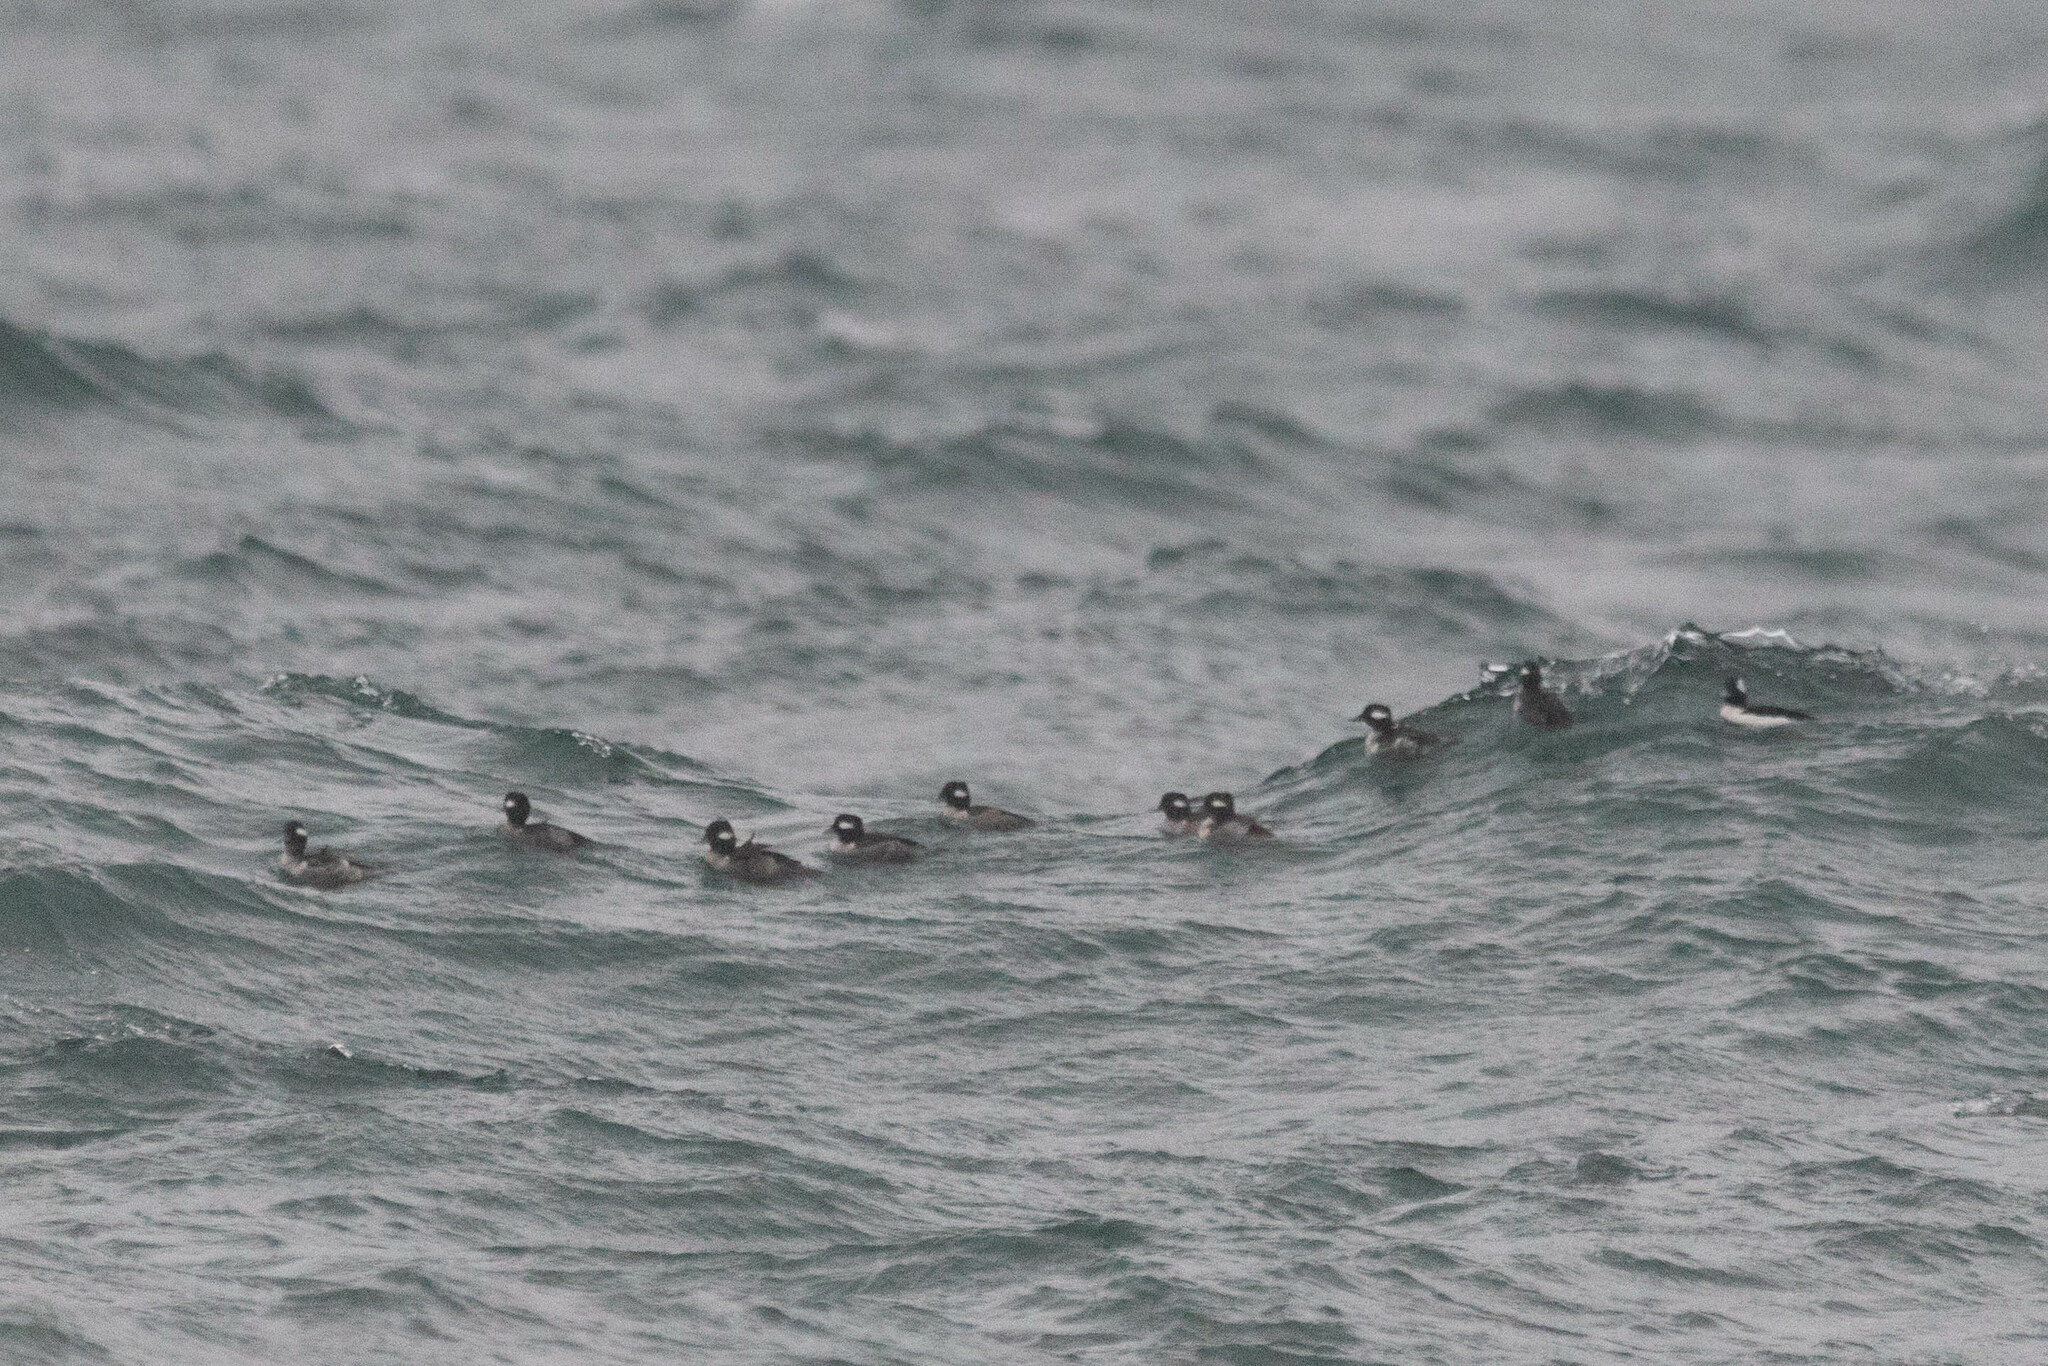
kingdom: Animalia
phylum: Chordata
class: Aves
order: Anseriformes
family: Anatidae
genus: Bucephala
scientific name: Bucephala albeola
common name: Bufflehead
